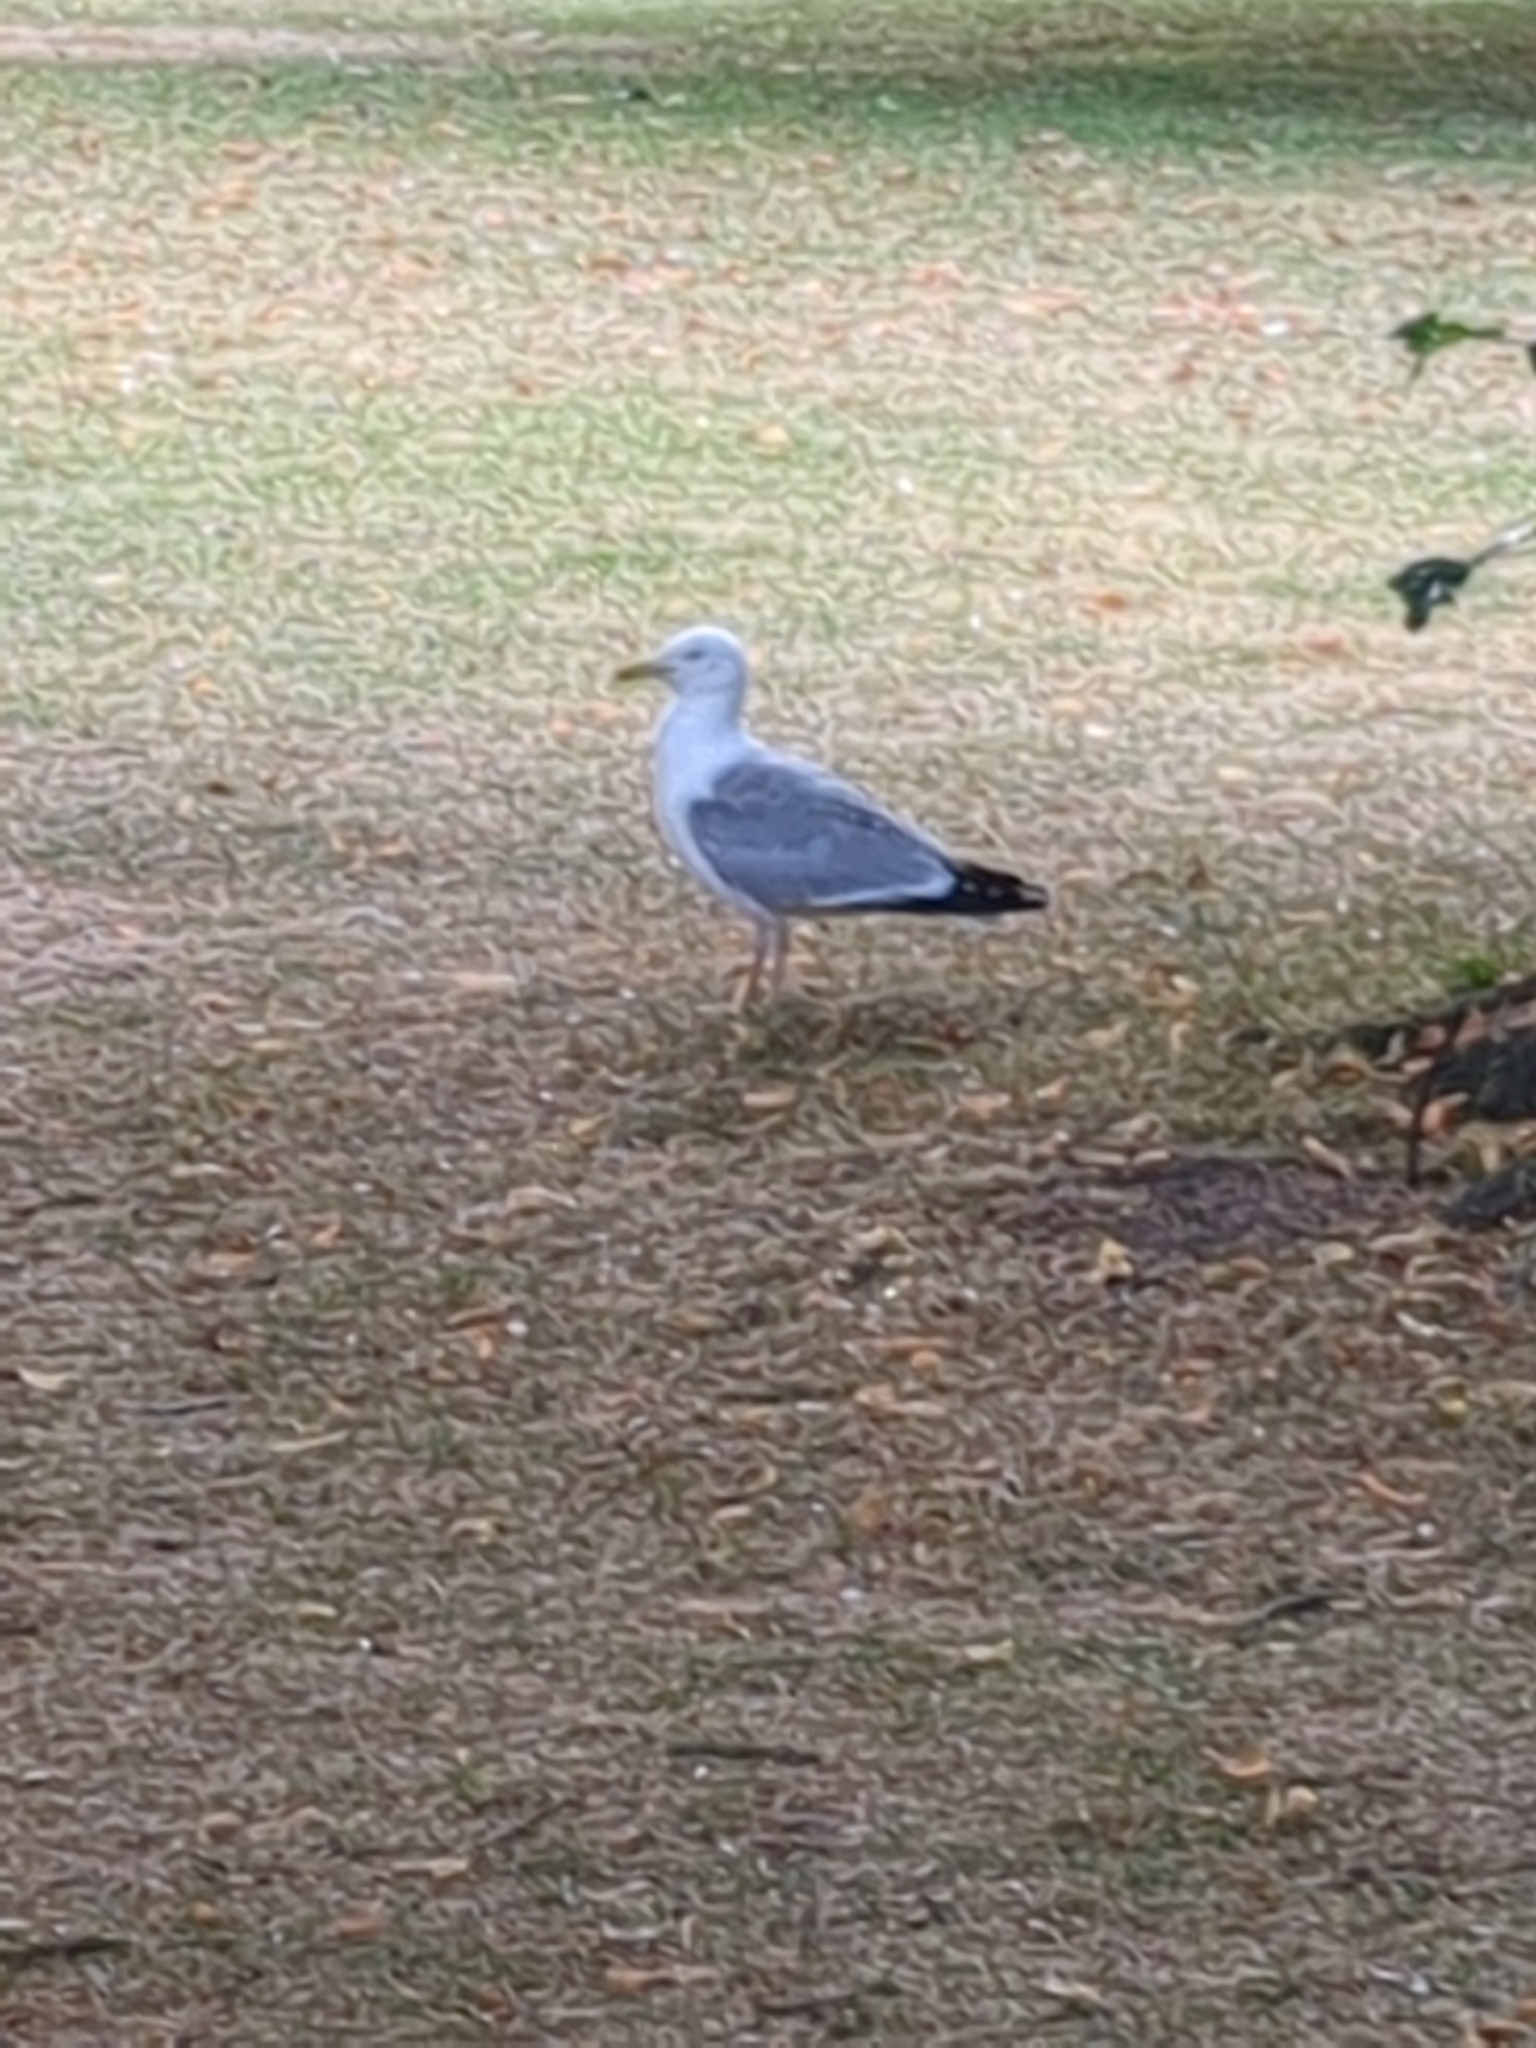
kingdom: Animalia
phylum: Chordata
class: Aves
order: Charadriiformes
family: Laridae
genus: Larus
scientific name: Larus argentatus
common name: Herring gull
